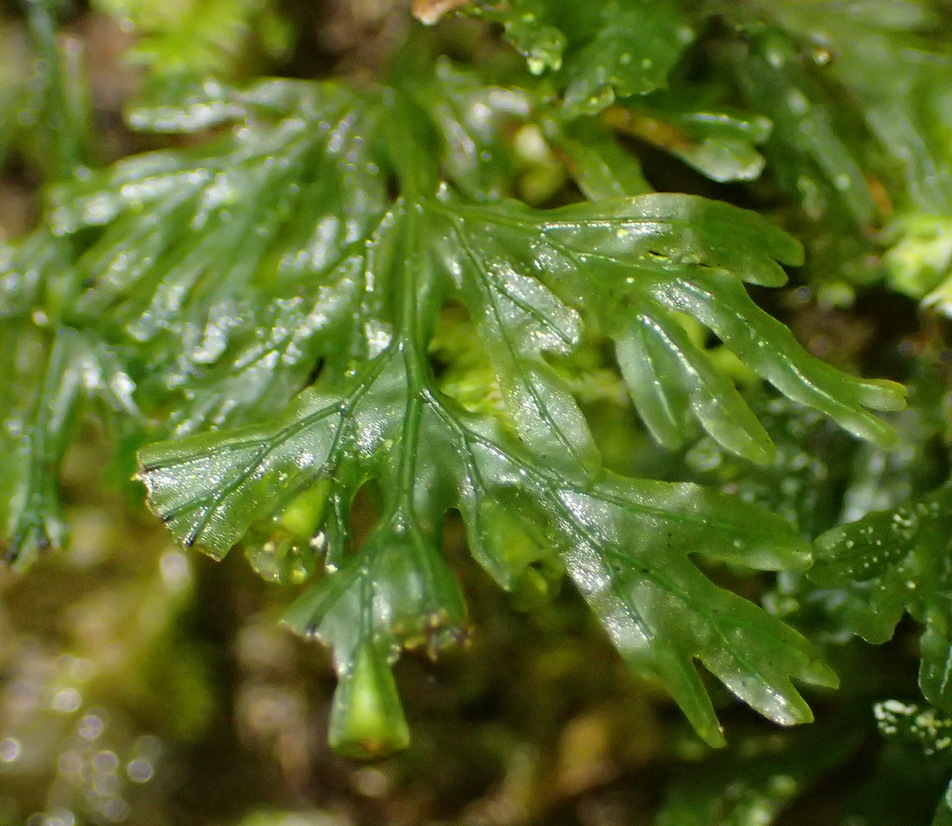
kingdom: Plantae
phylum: Tracheophyta
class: Polypodiopsida
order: Hymenophyllales
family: Hymenophyllaceae
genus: Crepidomanes
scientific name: Crepidomanes melanotrichum
